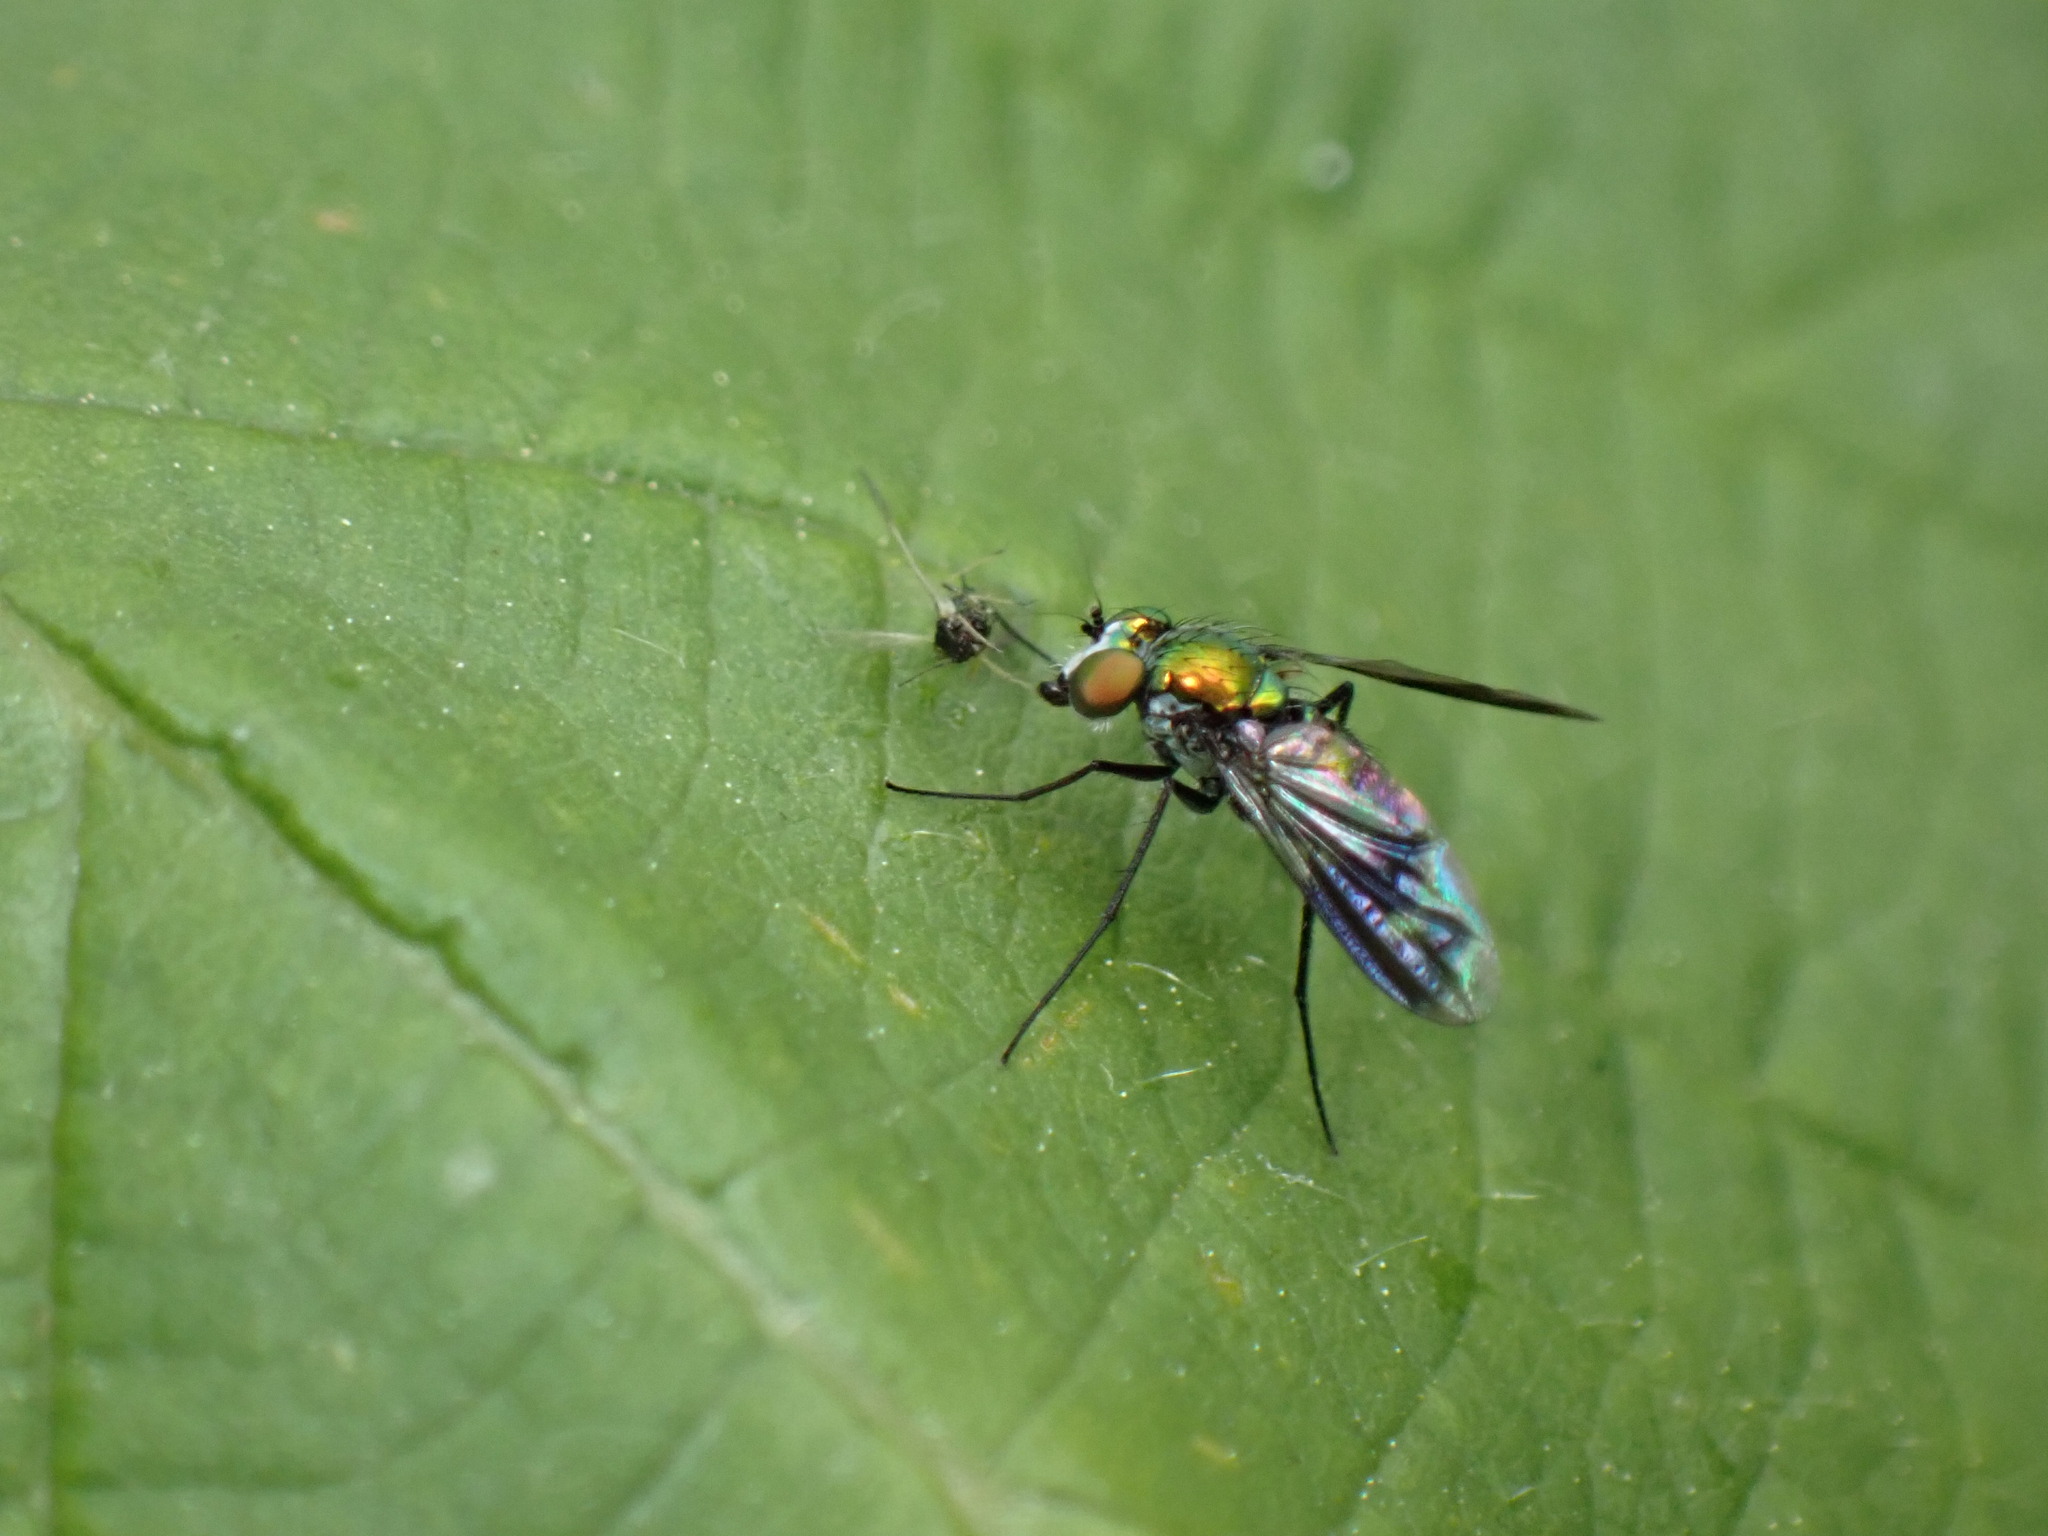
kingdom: Animalia
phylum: Arthropoda
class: Insecta
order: Diptera
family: Dolichopodidae
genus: Condylostylus
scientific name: Condylostylus patibulatus
